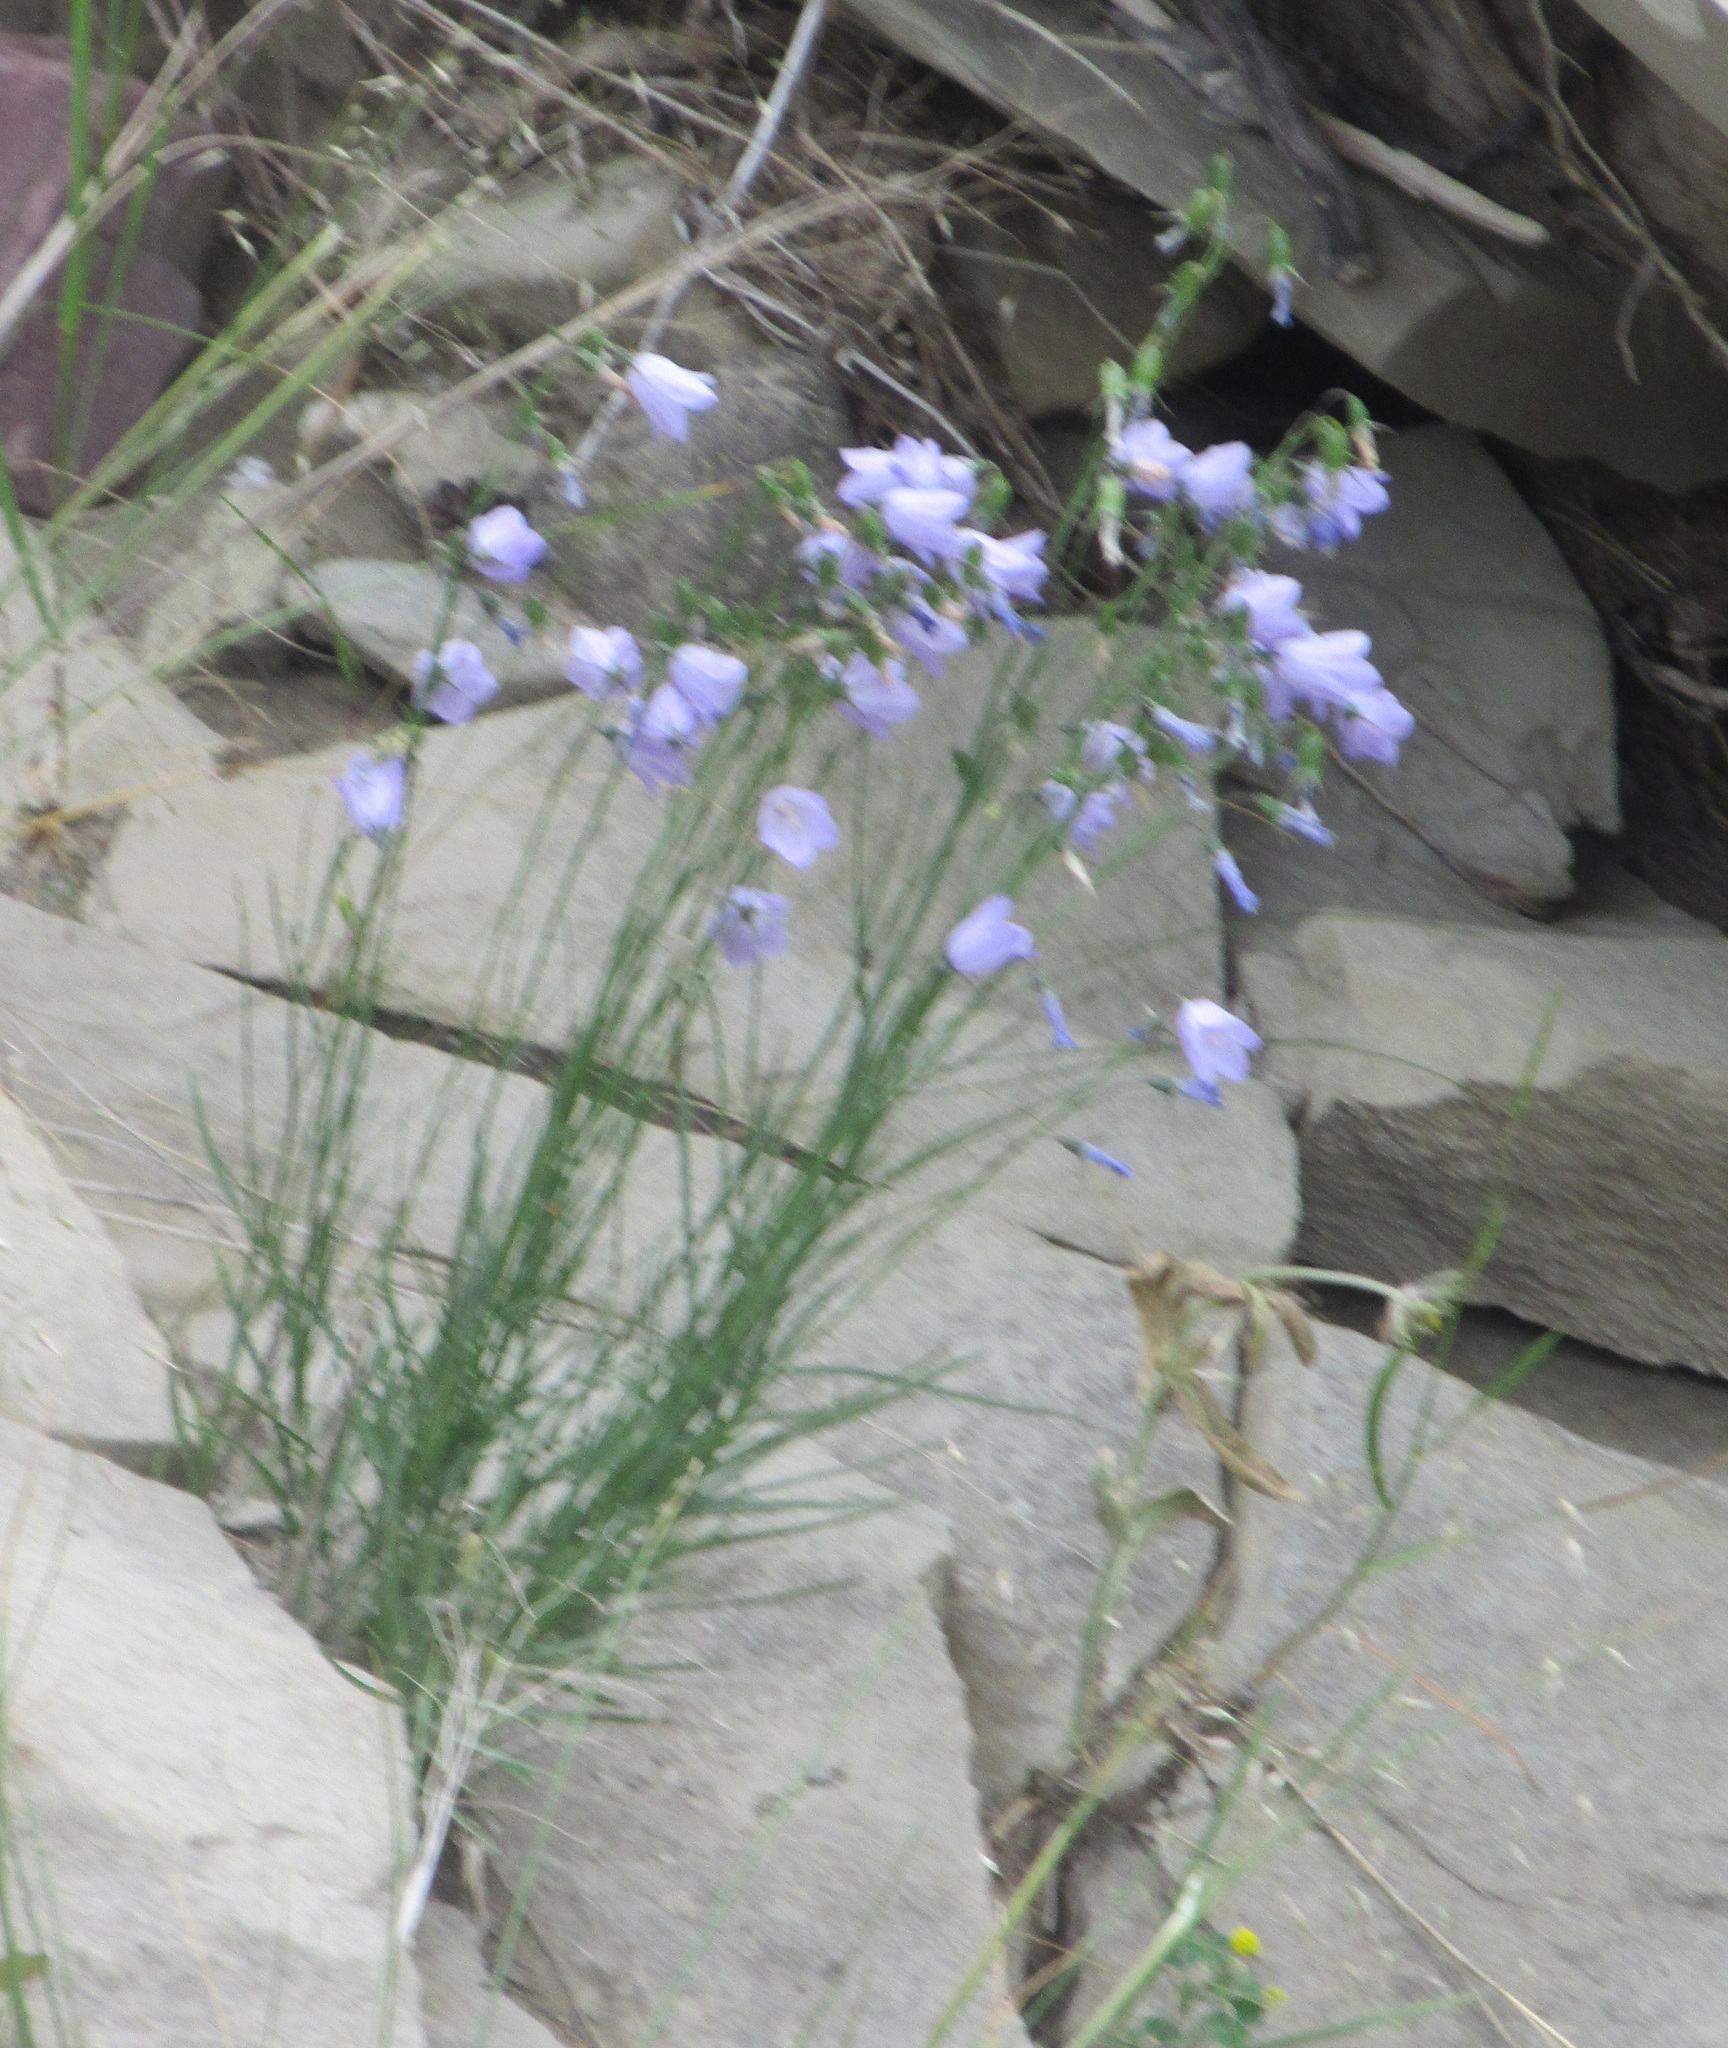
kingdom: Plantae
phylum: Tracheophyta
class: Magnoliopsida
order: Asterales
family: Campanulaceae
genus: Campanula
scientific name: Campanula alaskana
